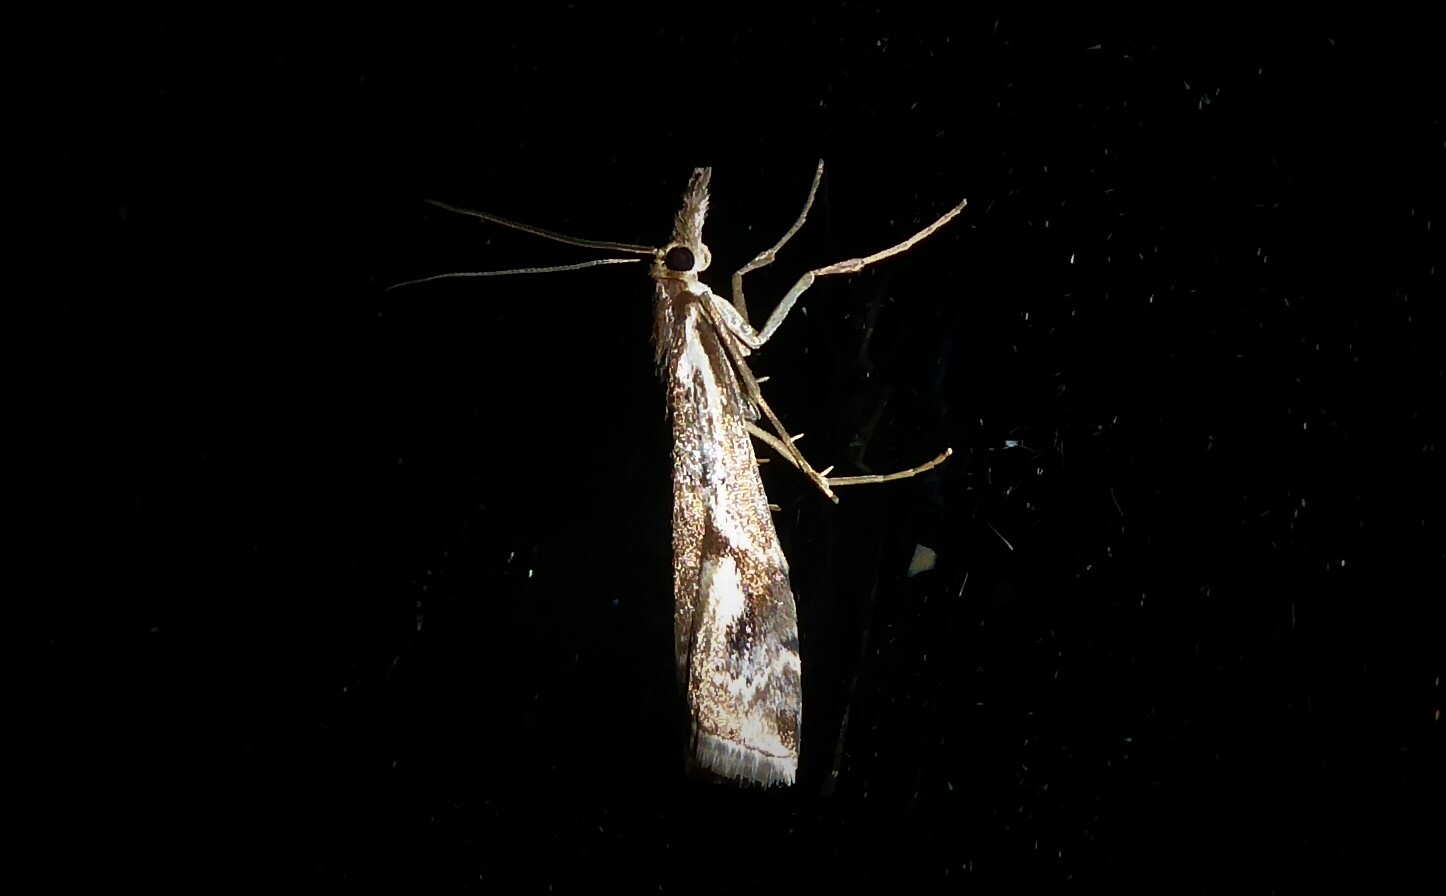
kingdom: Animalia
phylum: Arthropoda
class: Insecta
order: Lepidoptera
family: Crambidae
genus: Orocrambus
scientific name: Orocrambus vulgaris
